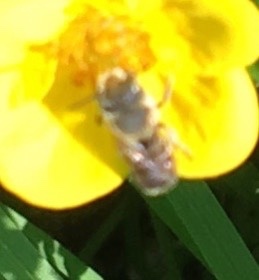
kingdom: Animalia
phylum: Arthropoda
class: Insecta
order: Hymenoptera
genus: Eutricharaea
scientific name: Eutricharaea
